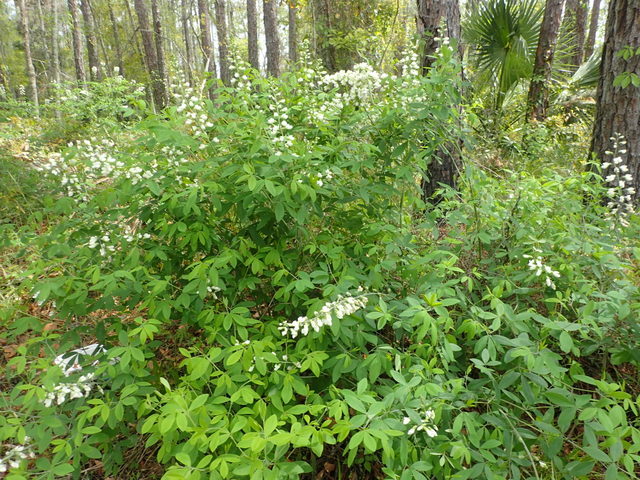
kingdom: Plantae
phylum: Tracheophyta
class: Magnoliopsida
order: Fabales
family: Fabaceae
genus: Baptisia
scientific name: Baptisia alba
